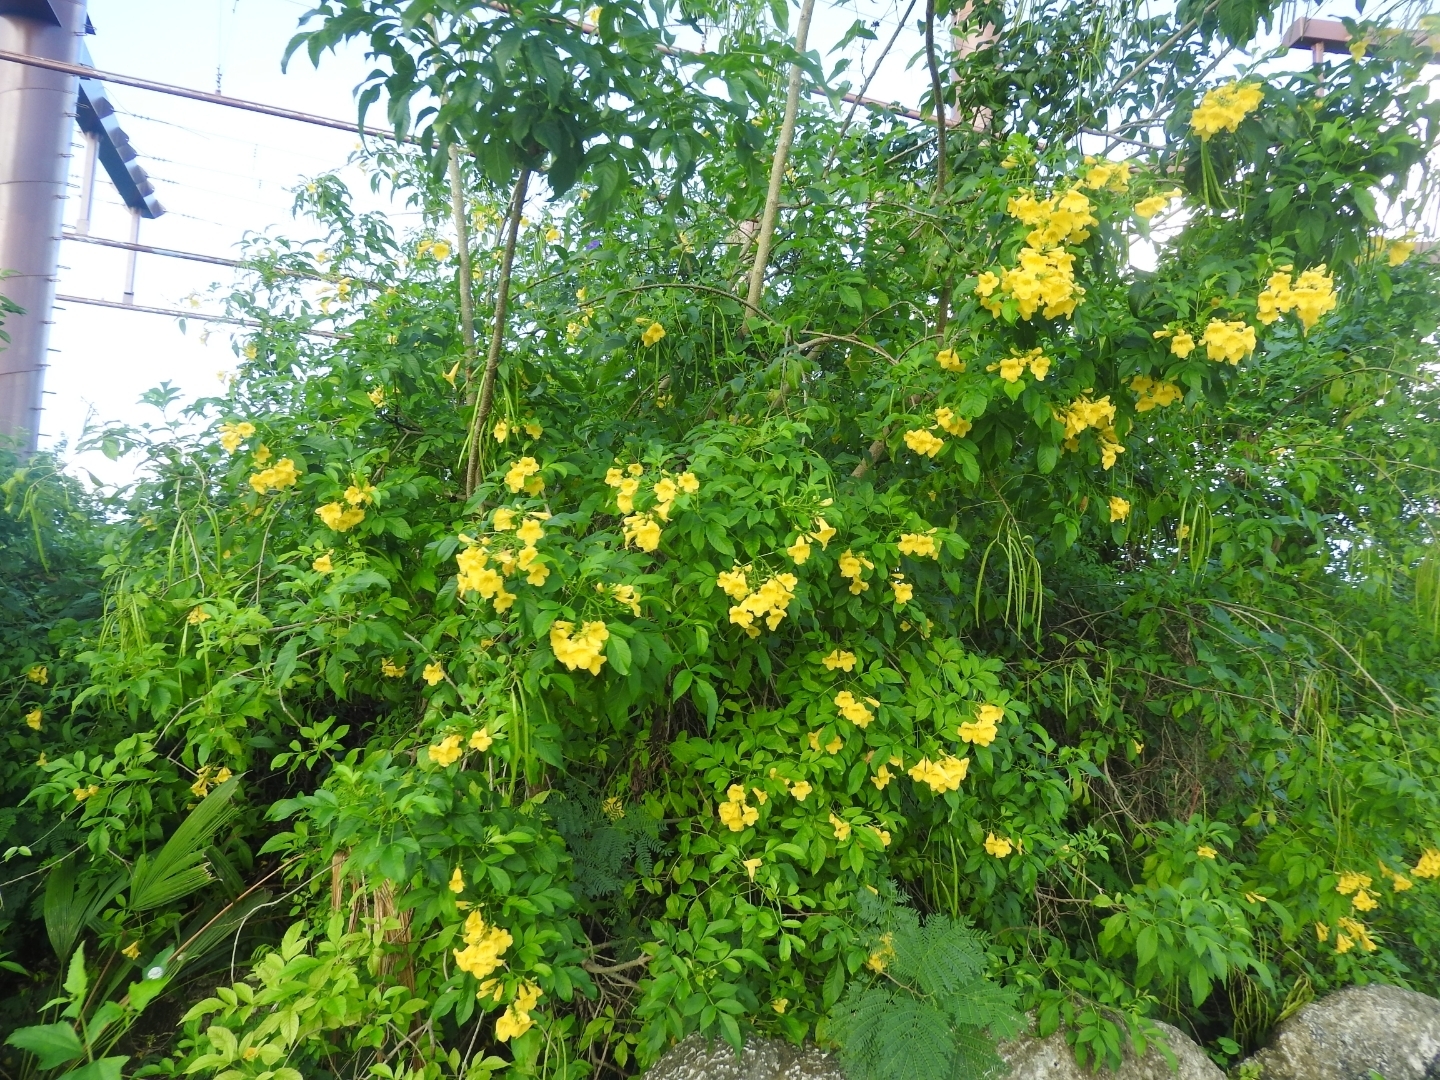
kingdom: Plantae
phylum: Tracheophyta
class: Magnoliopsida
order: Lamiales
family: Bignoniaceae
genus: Tecoma
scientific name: Tecoma stans
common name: Yellow trumpetbush
